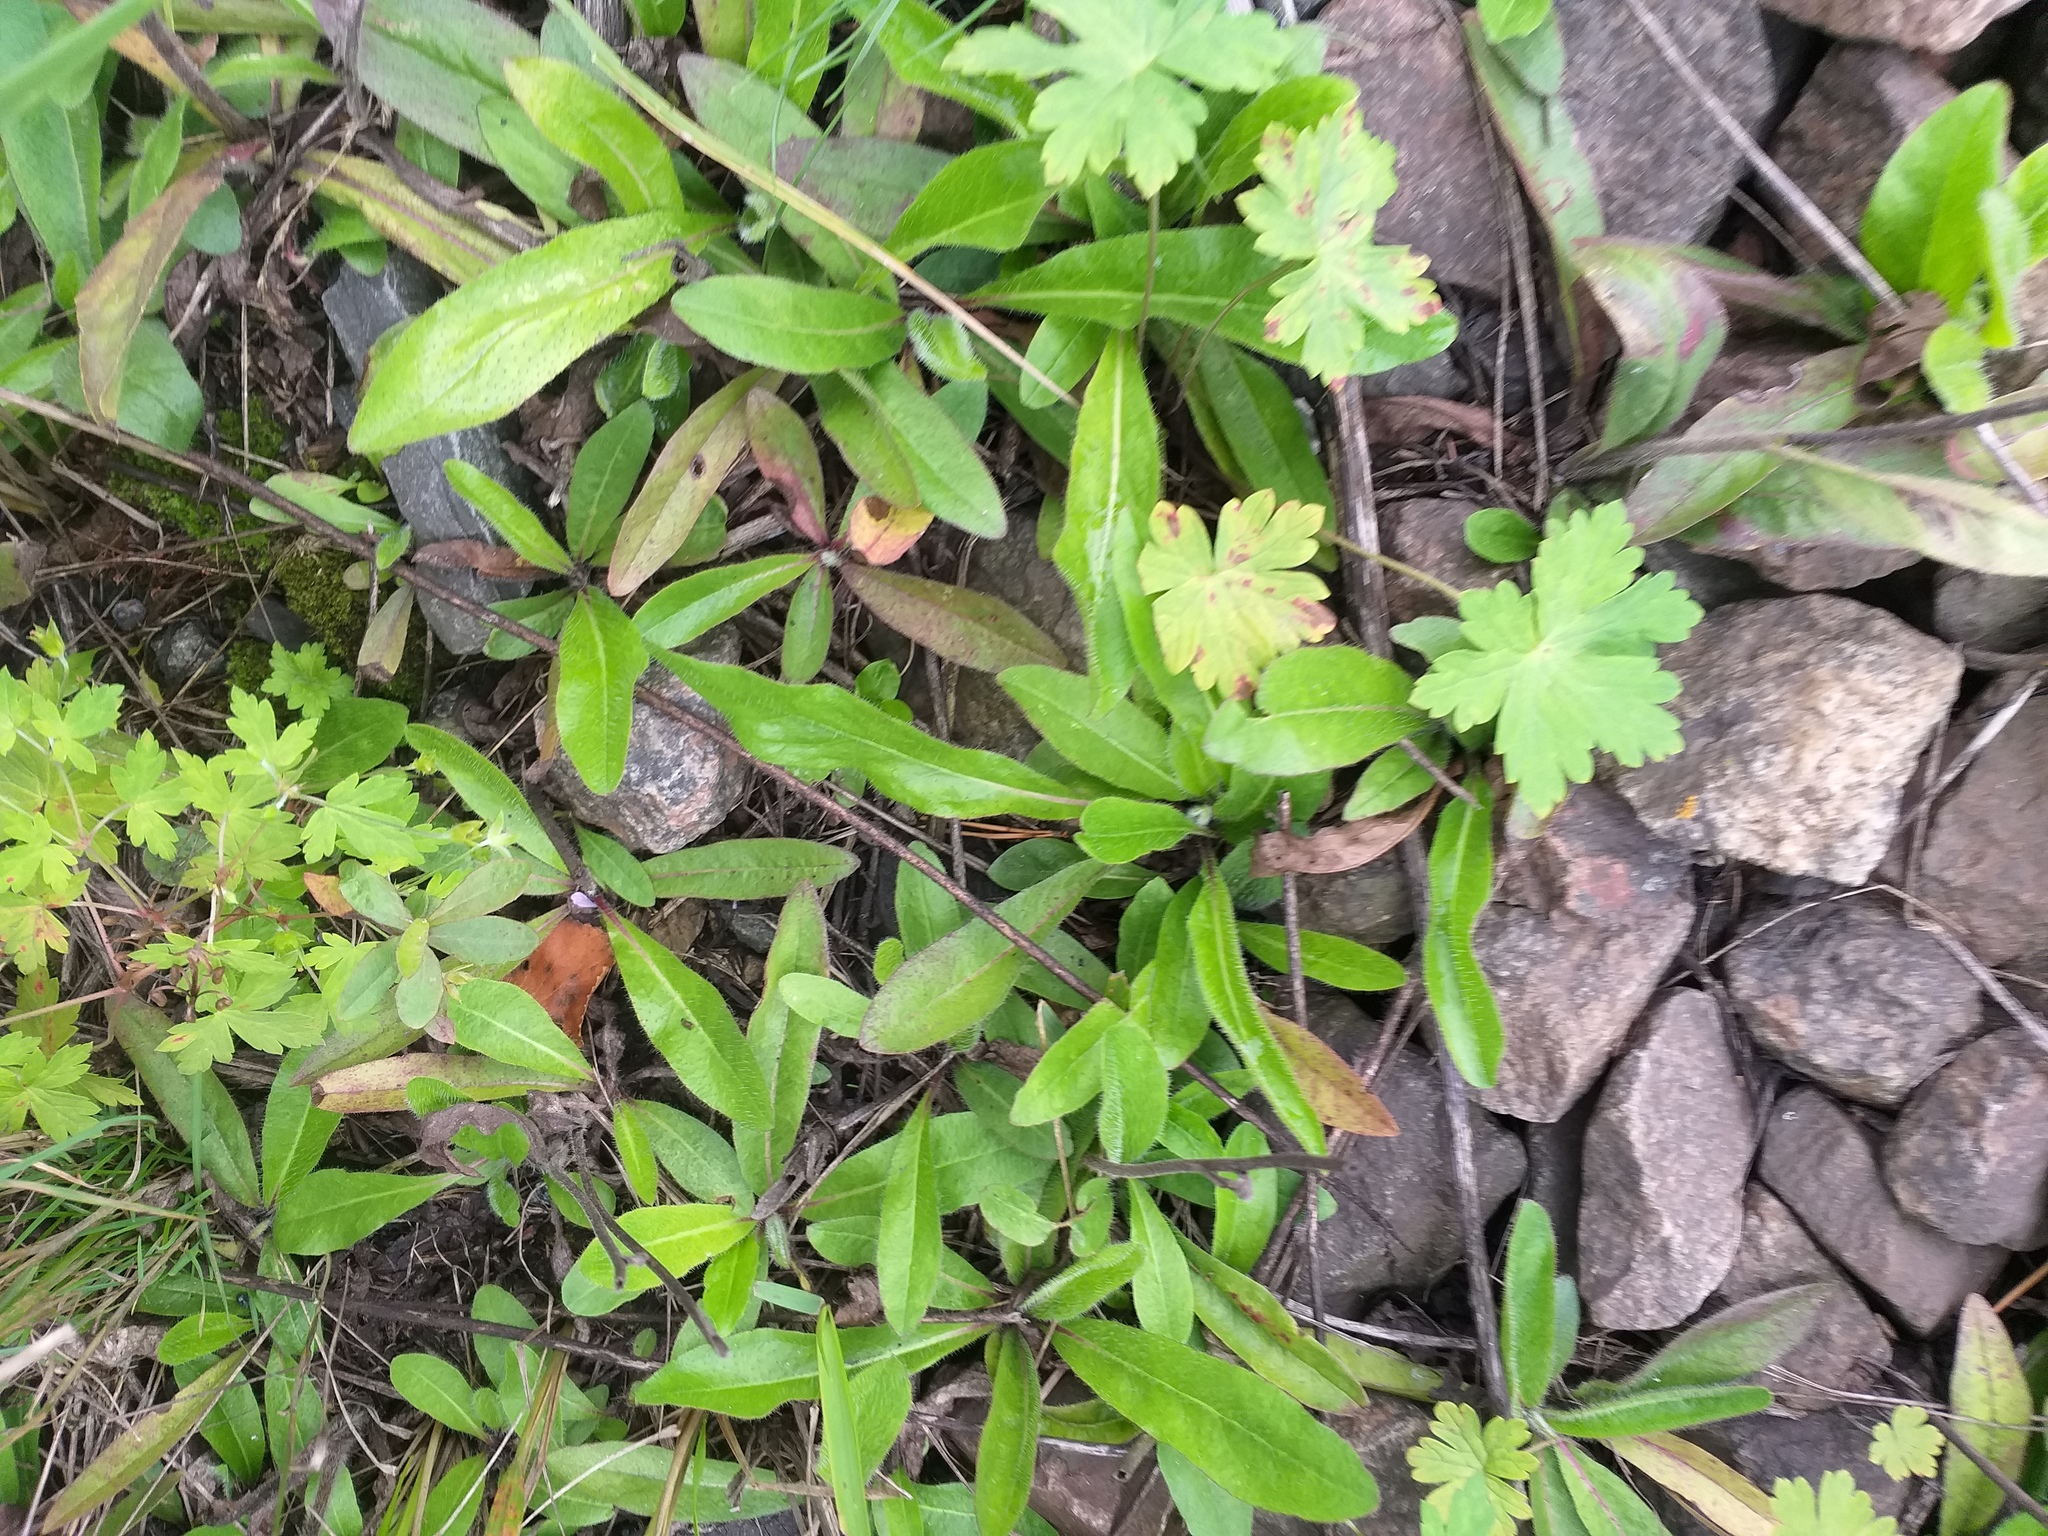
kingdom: Plantae
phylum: Tracheophyta
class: Magnoliopsida
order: Asterales
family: Asteraceae
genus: Pilosella
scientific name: Pilosella
